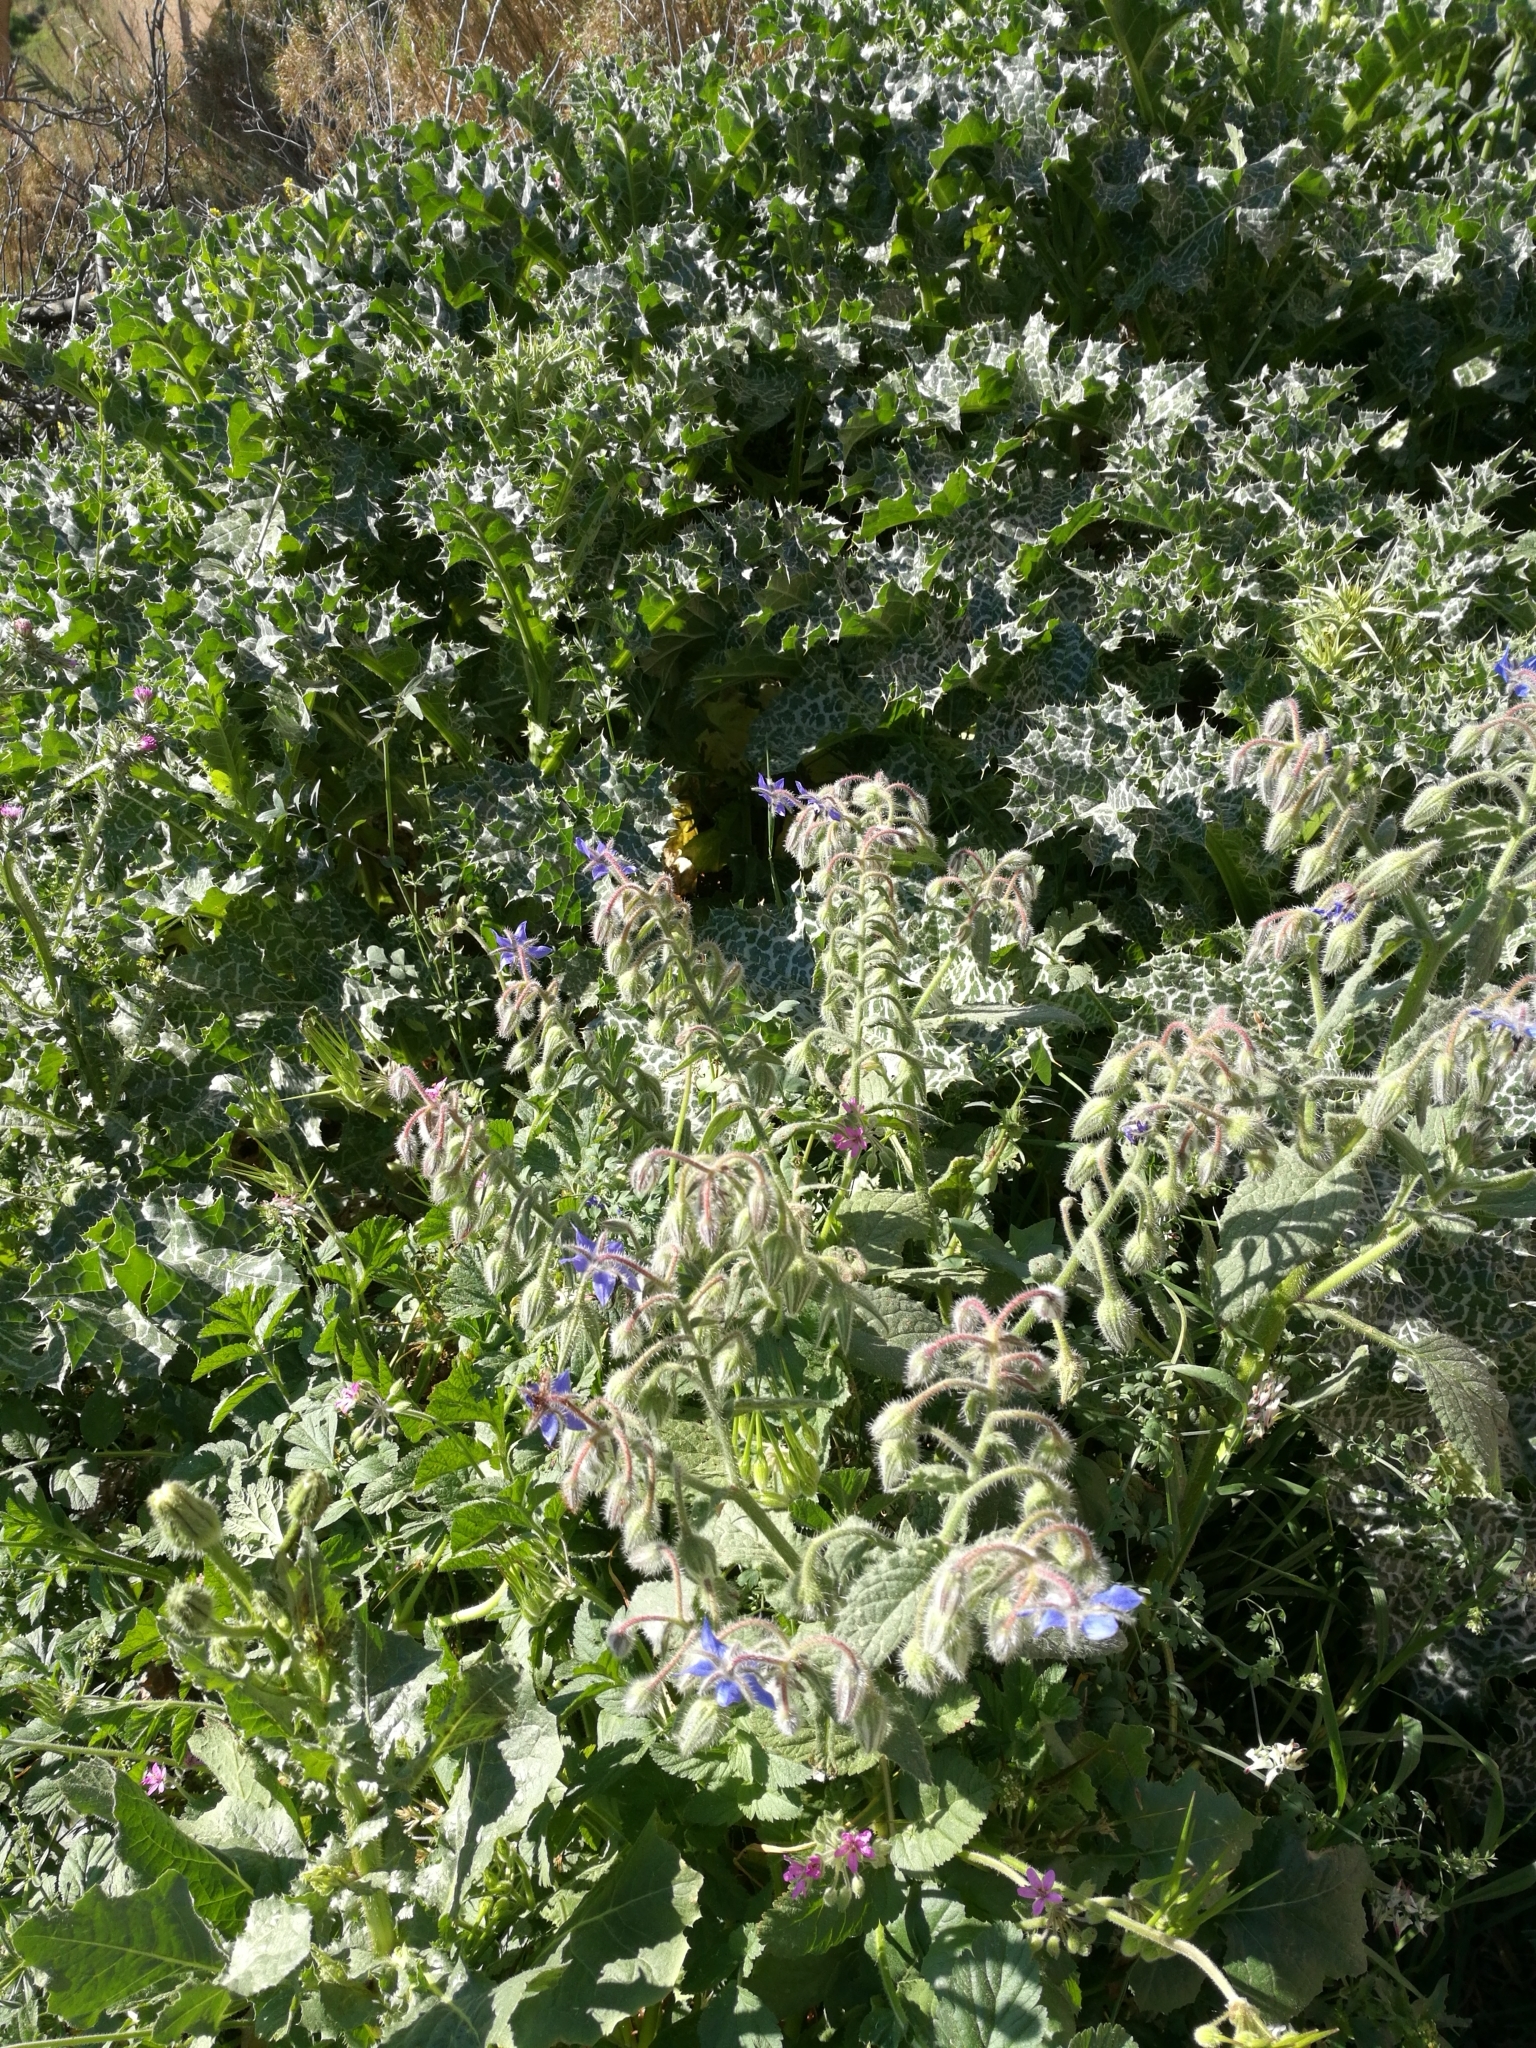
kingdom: Plantae
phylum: Tracheophyta
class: Magnoliopsida
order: Boraginales
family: Boraginaceae
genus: Borago
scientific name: Borago officinalis
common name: Borage
